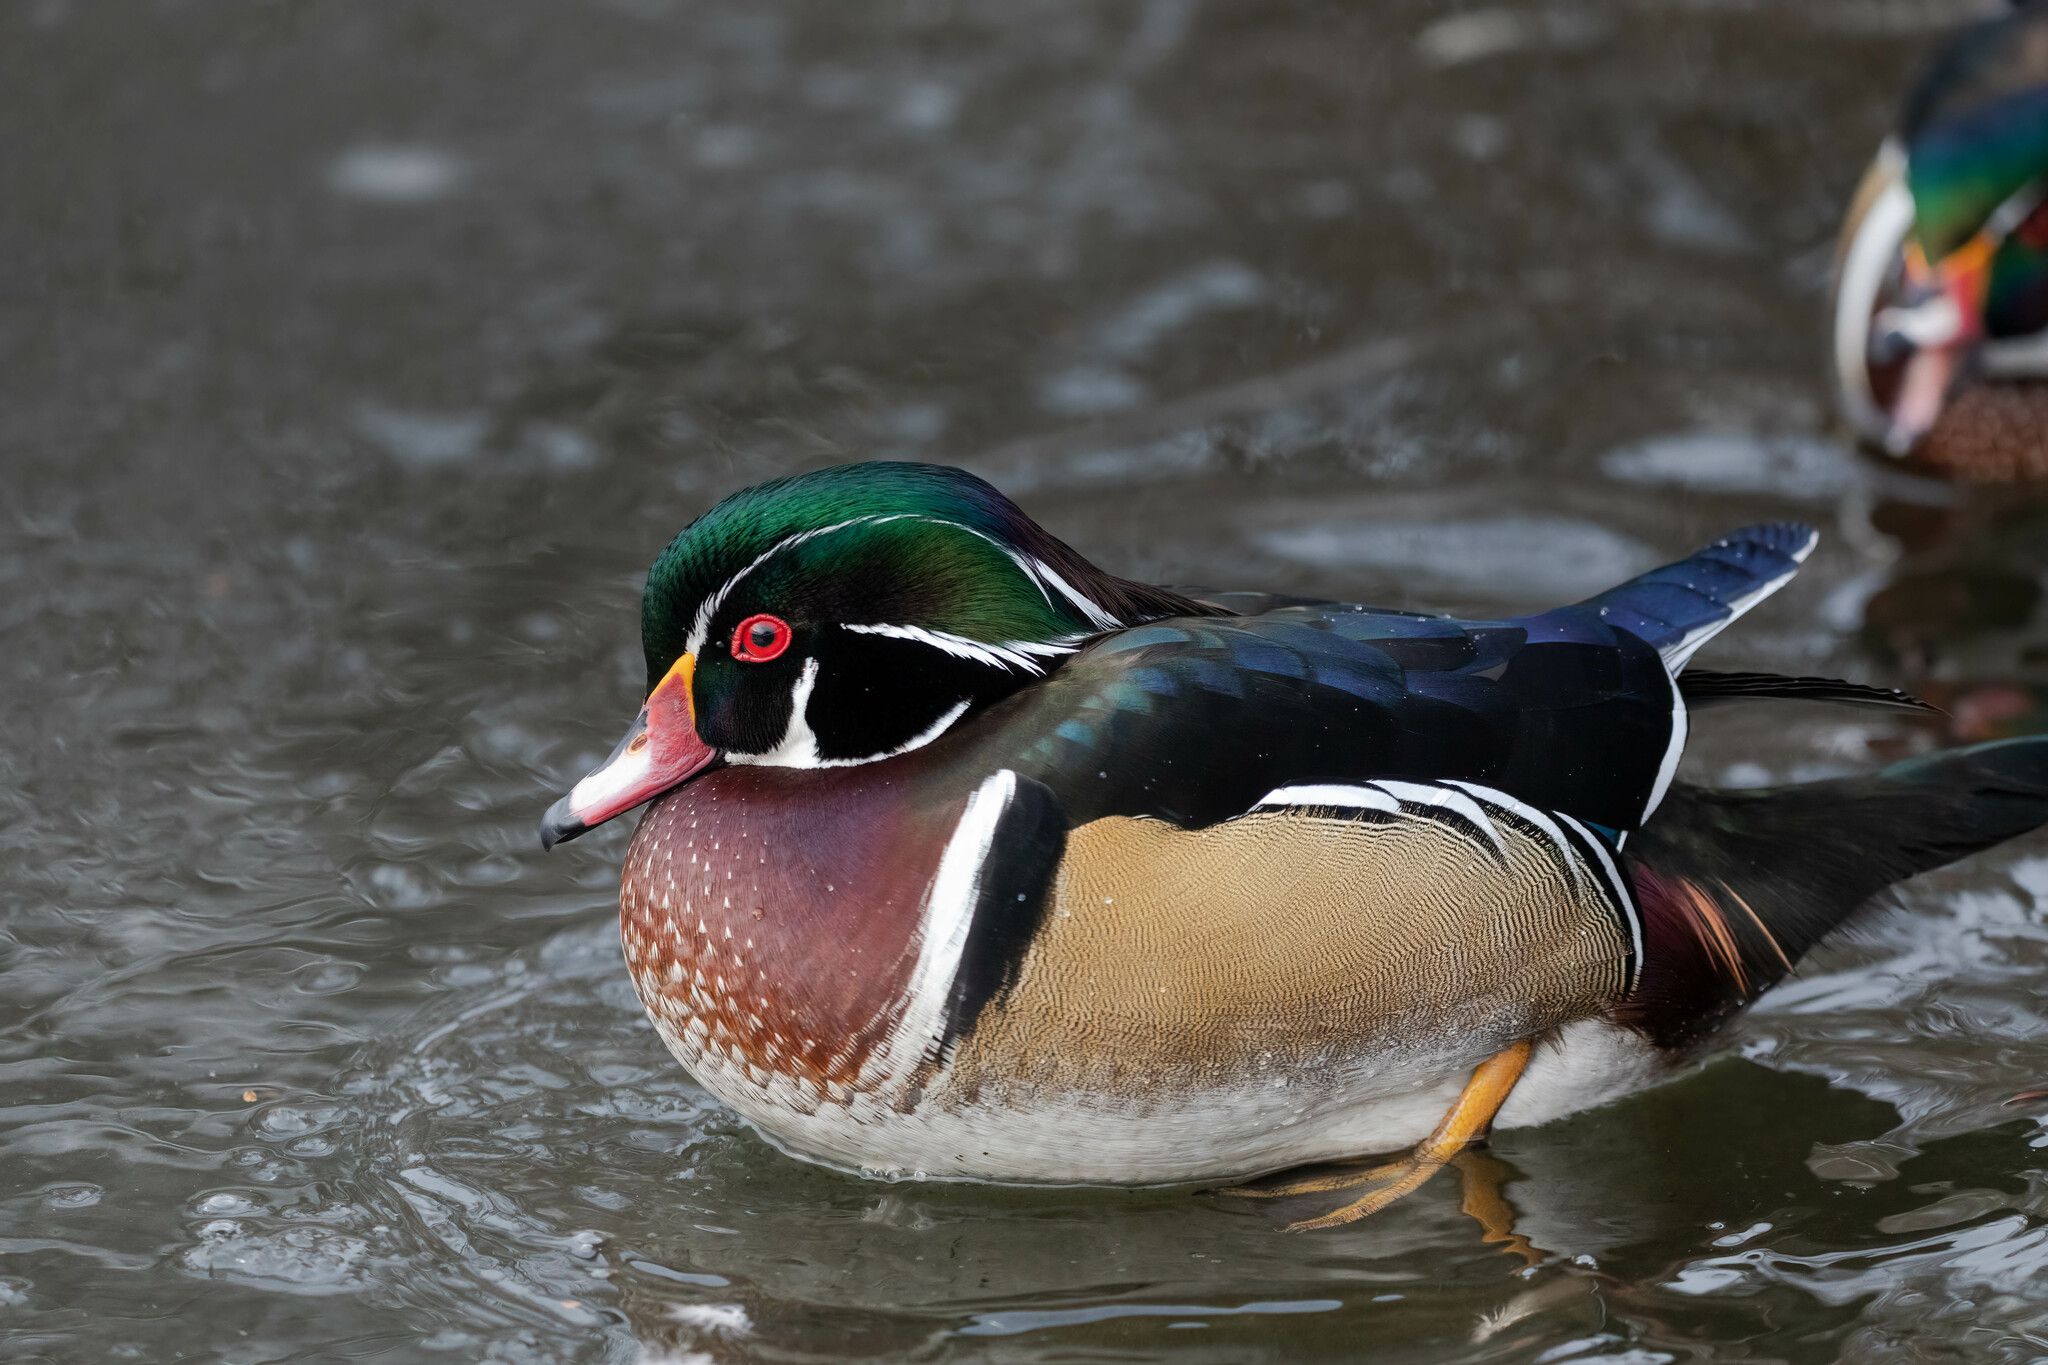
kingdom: Animalia
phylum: Chordata
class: Aves
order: Anseriformes
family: Anatidae
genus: Aix
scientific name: Aix sponsa
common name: Wood duck
